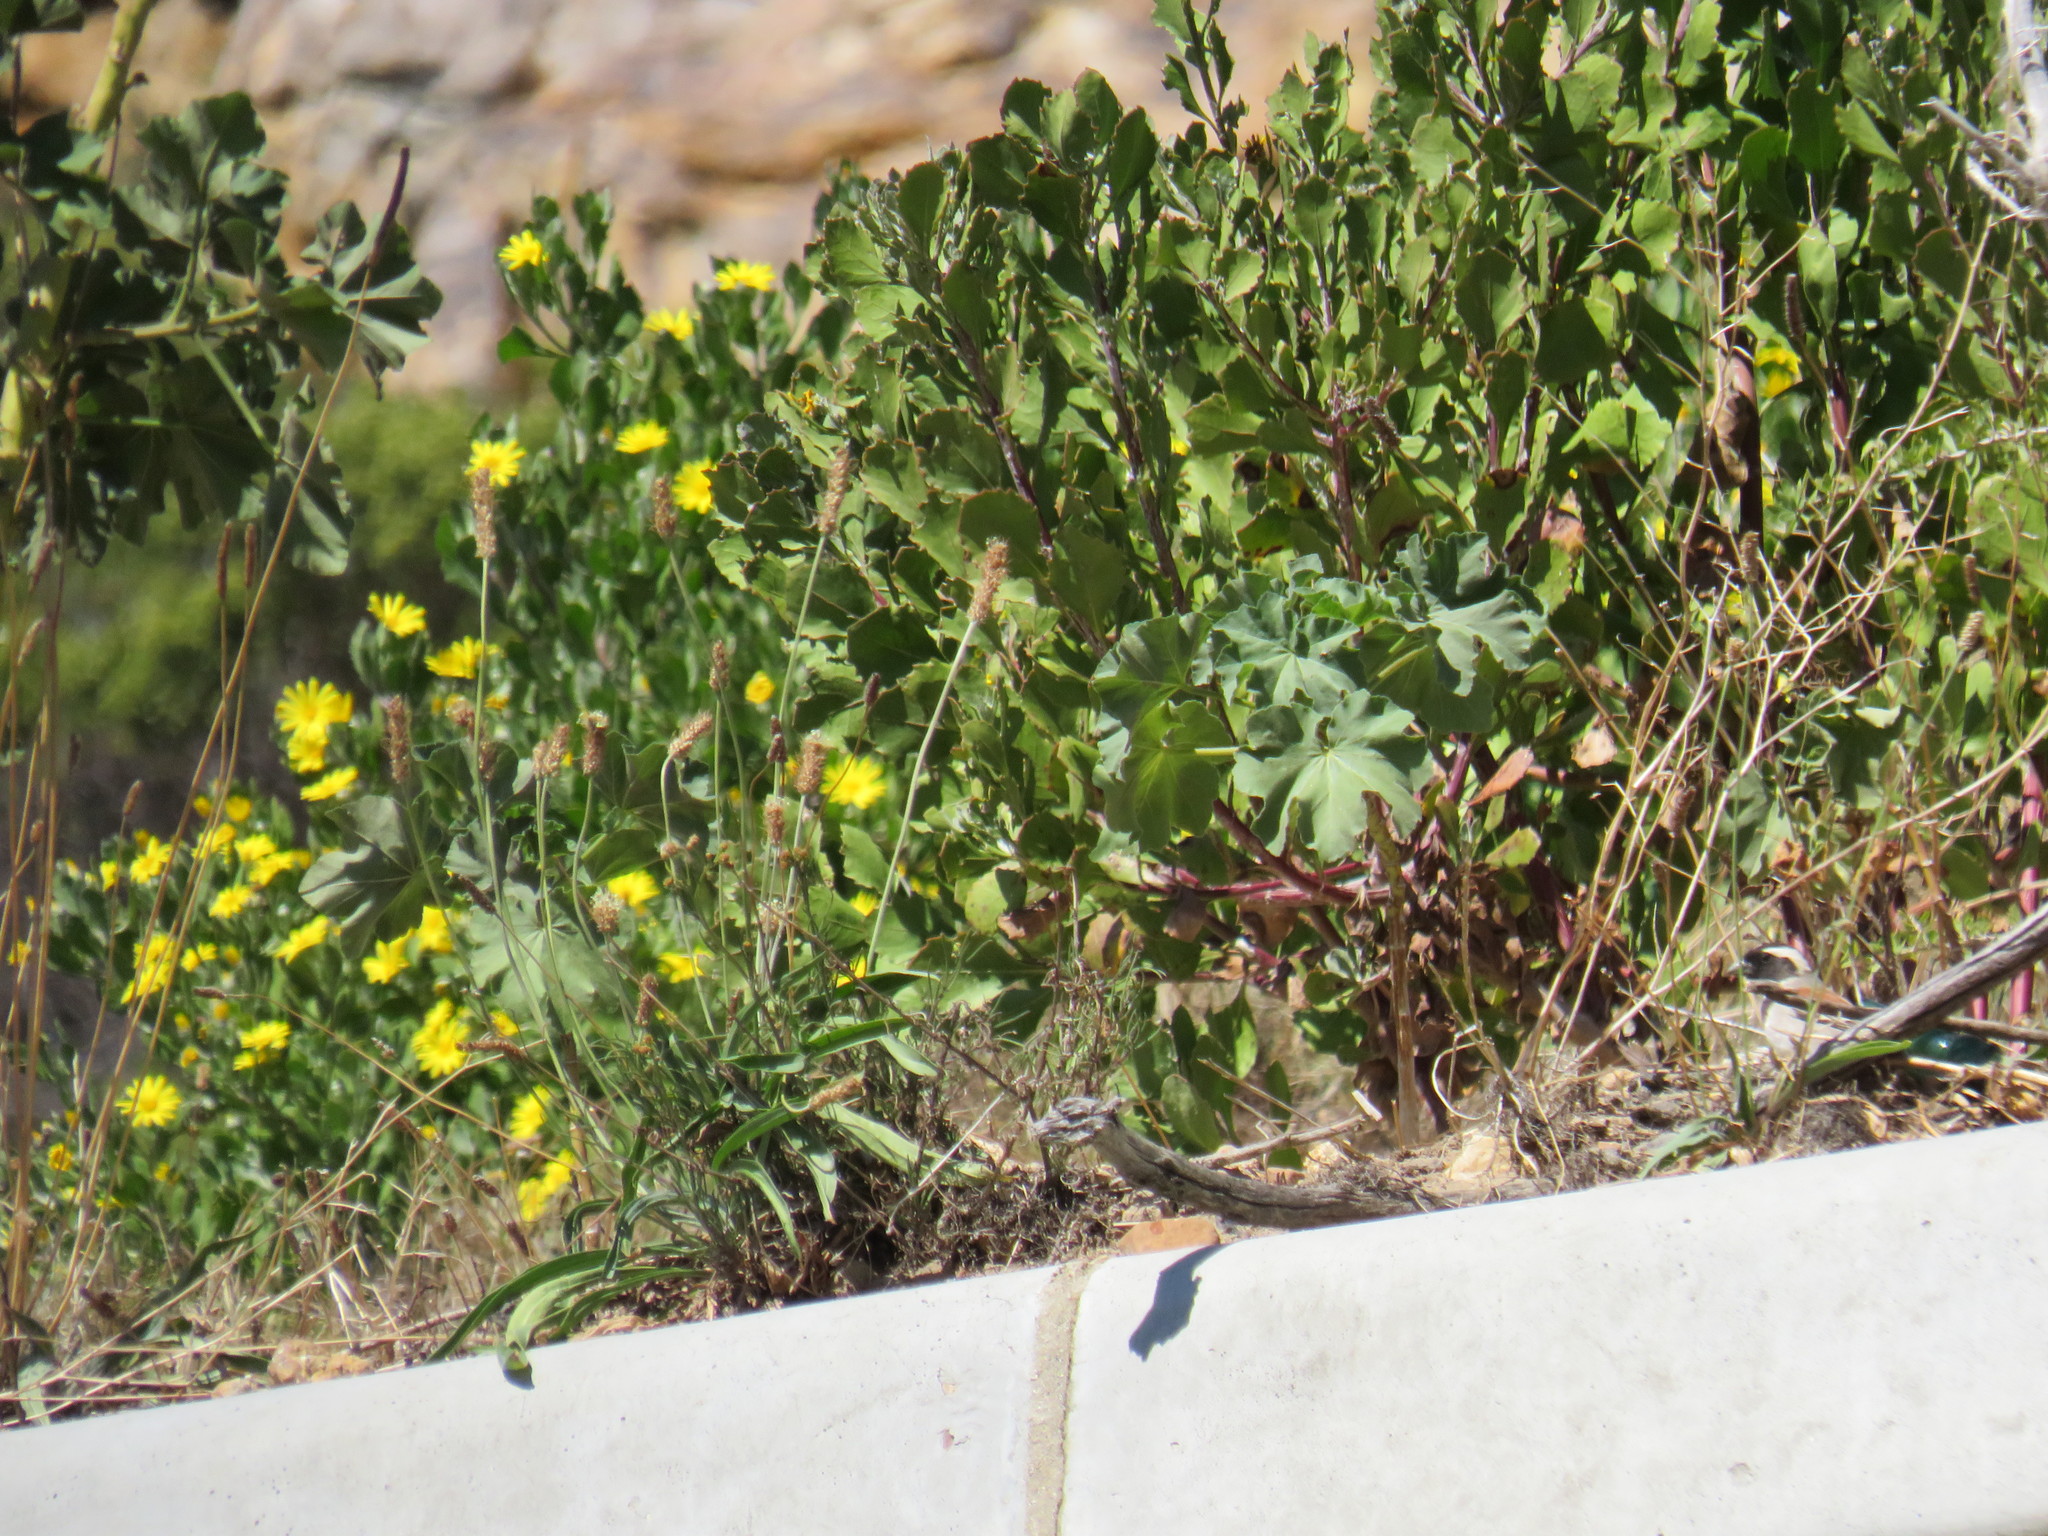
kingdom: Plantae
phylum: Tracheophyta
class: Magnoliopsida
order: Lamiales
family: Plantaginaceae
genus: Plantago
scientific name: Plantago lanceolata
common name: Ribwort plantain
